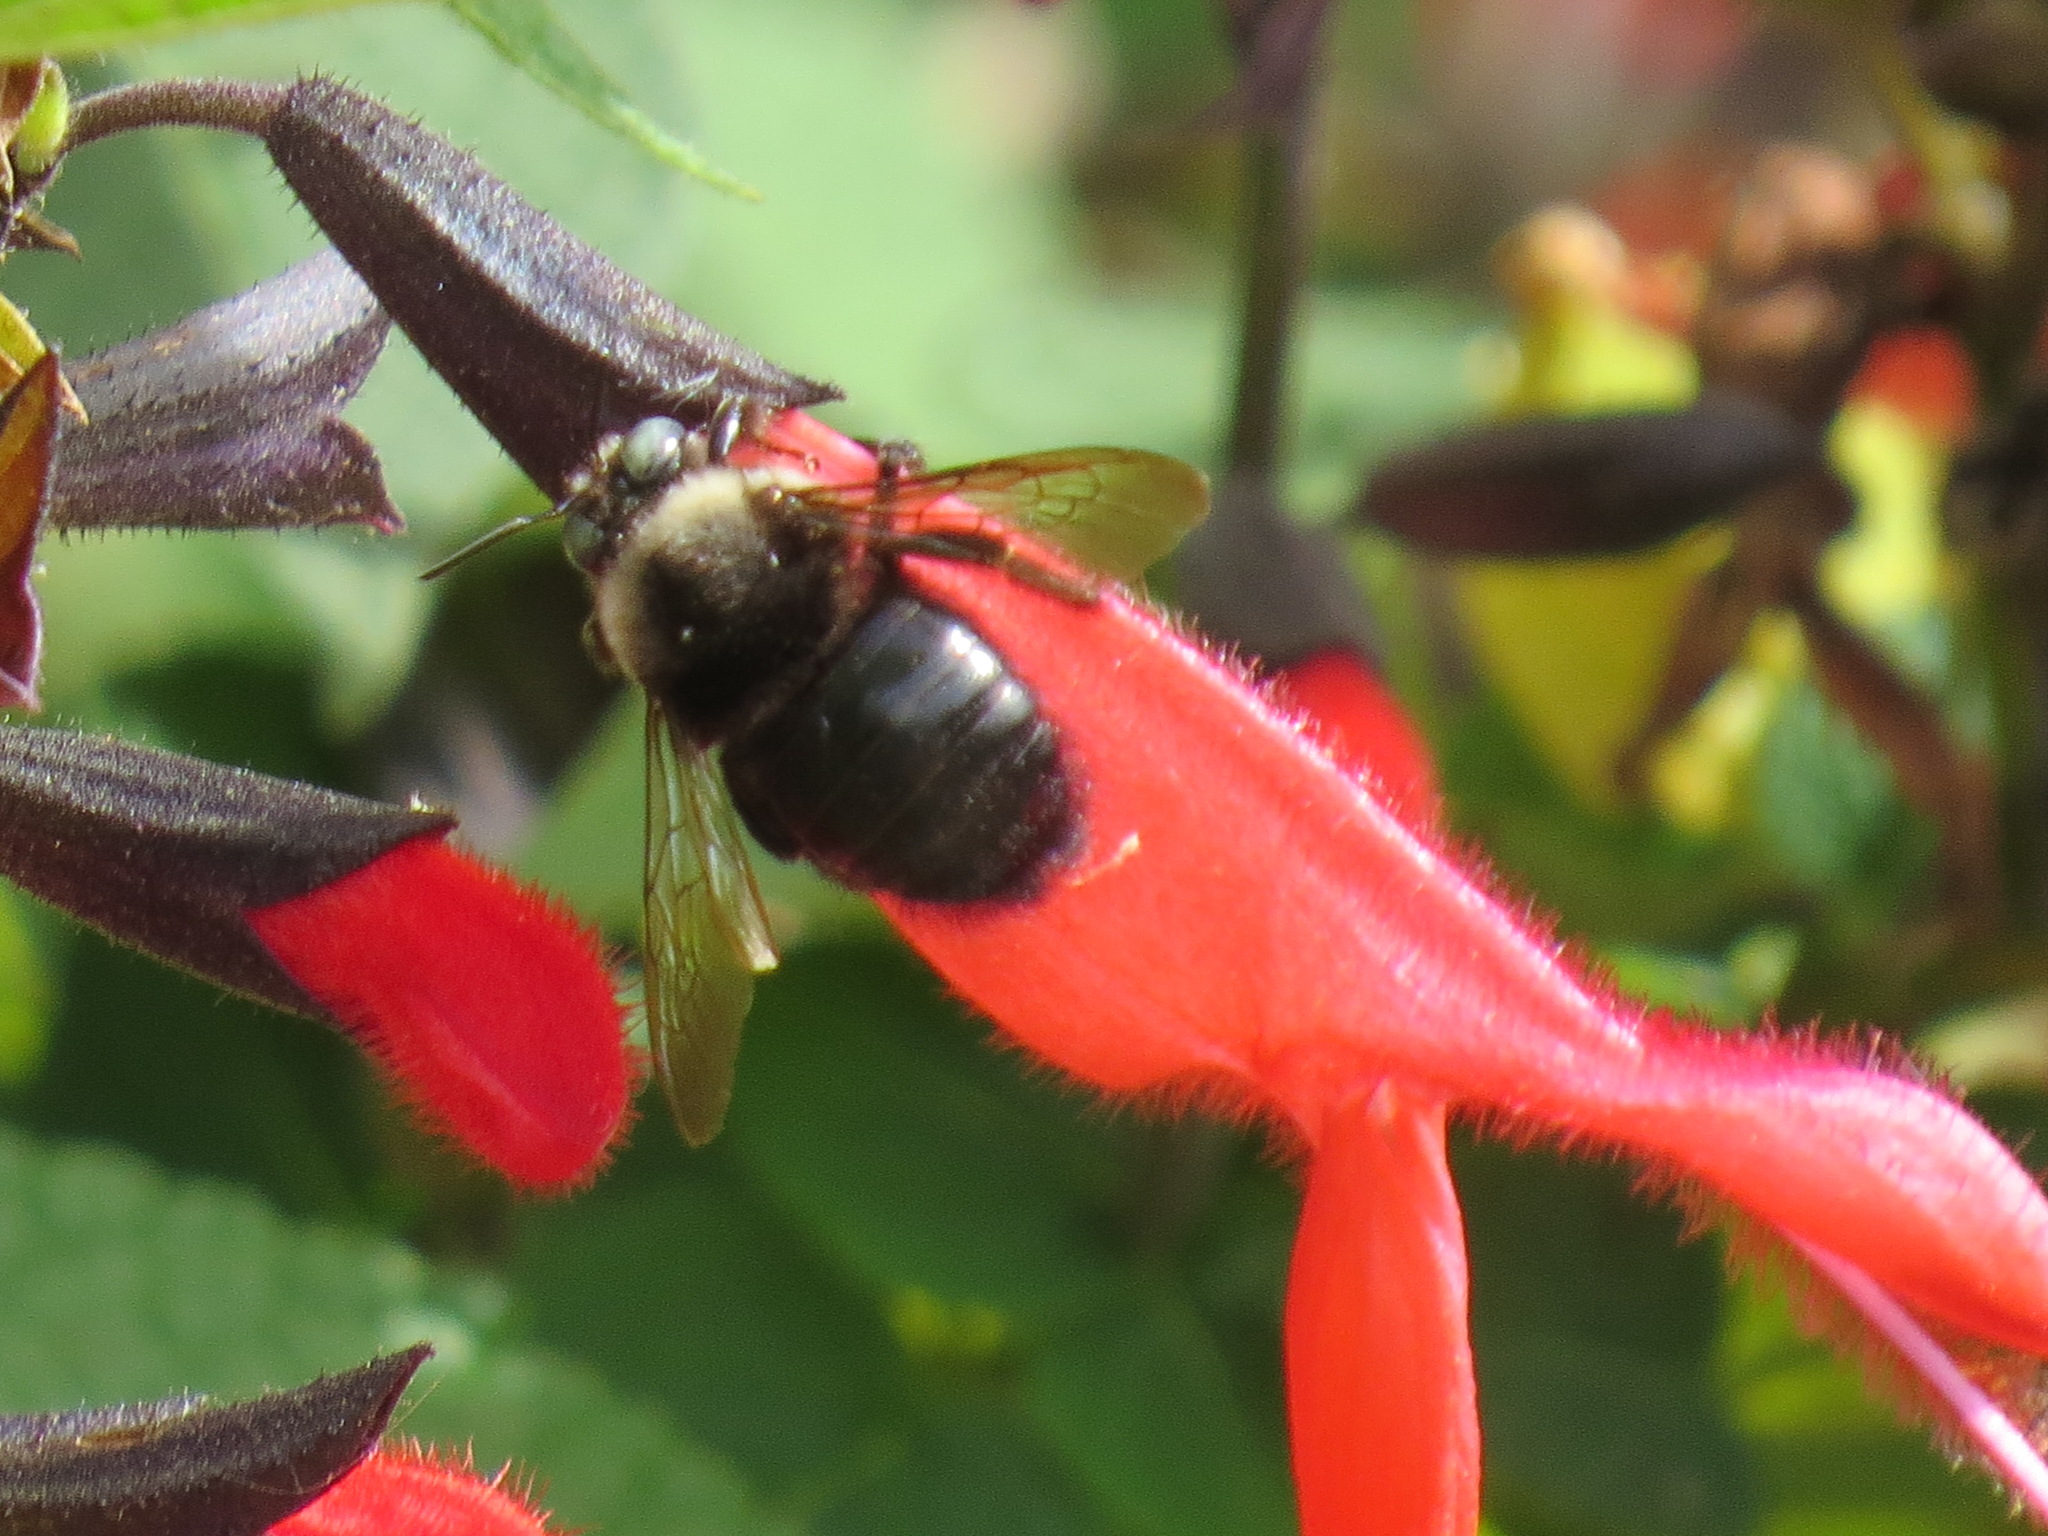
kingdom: Animalia
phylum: Arthropoda
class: Insecta
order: Hymenoptera
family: Apidae
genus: Xylocopa
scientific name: Xylocopa tabaniformis
